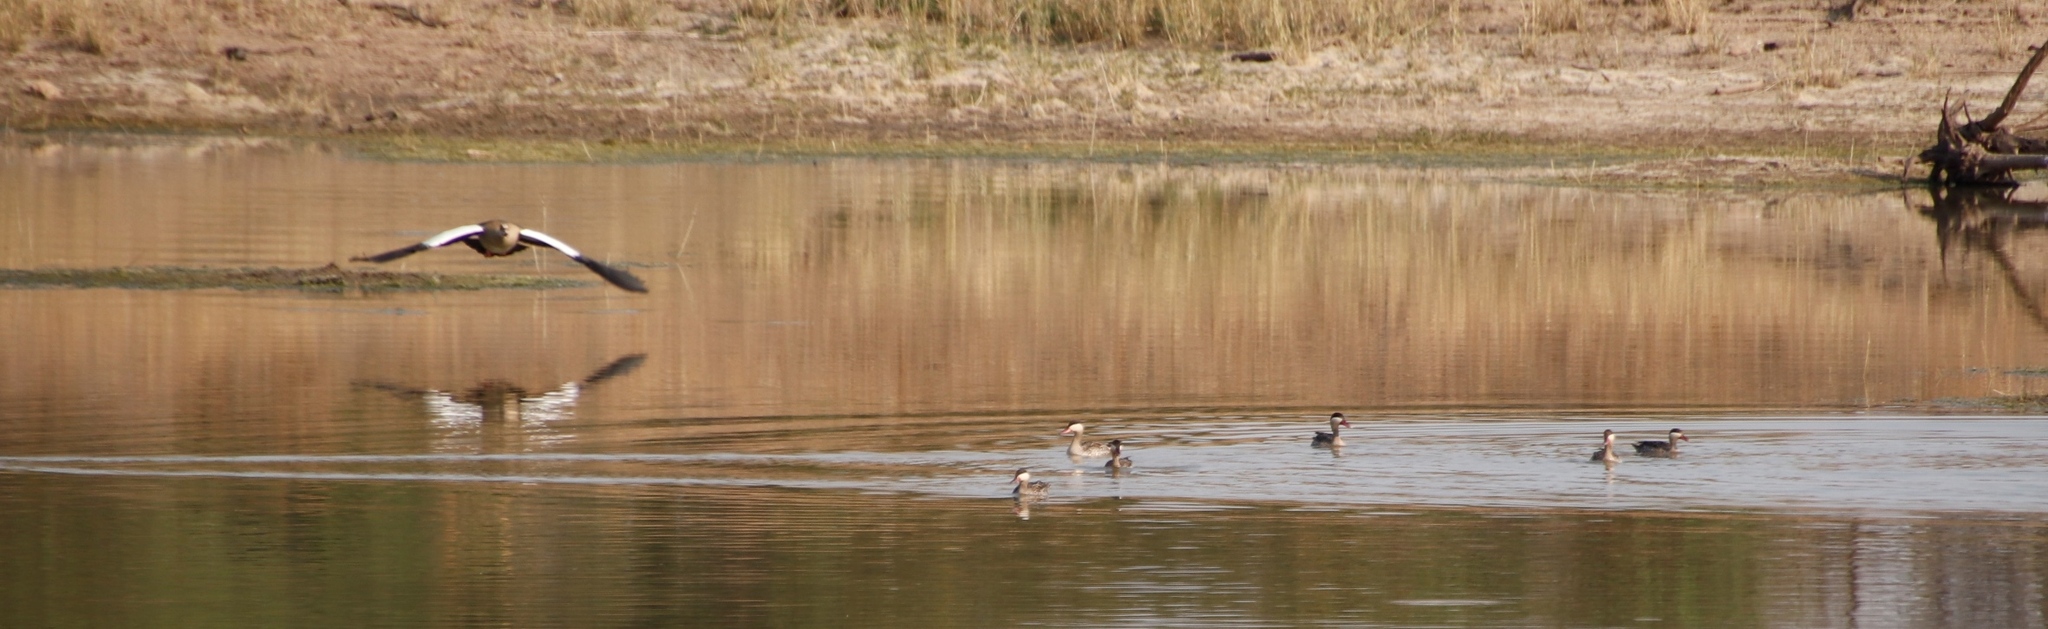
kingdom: Animalia
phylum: Chordata
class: Aves
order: Anseriformes
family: Anatidae
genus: Alopochen
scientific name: Alopochen aegyptiaca
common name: Egyptian goose
